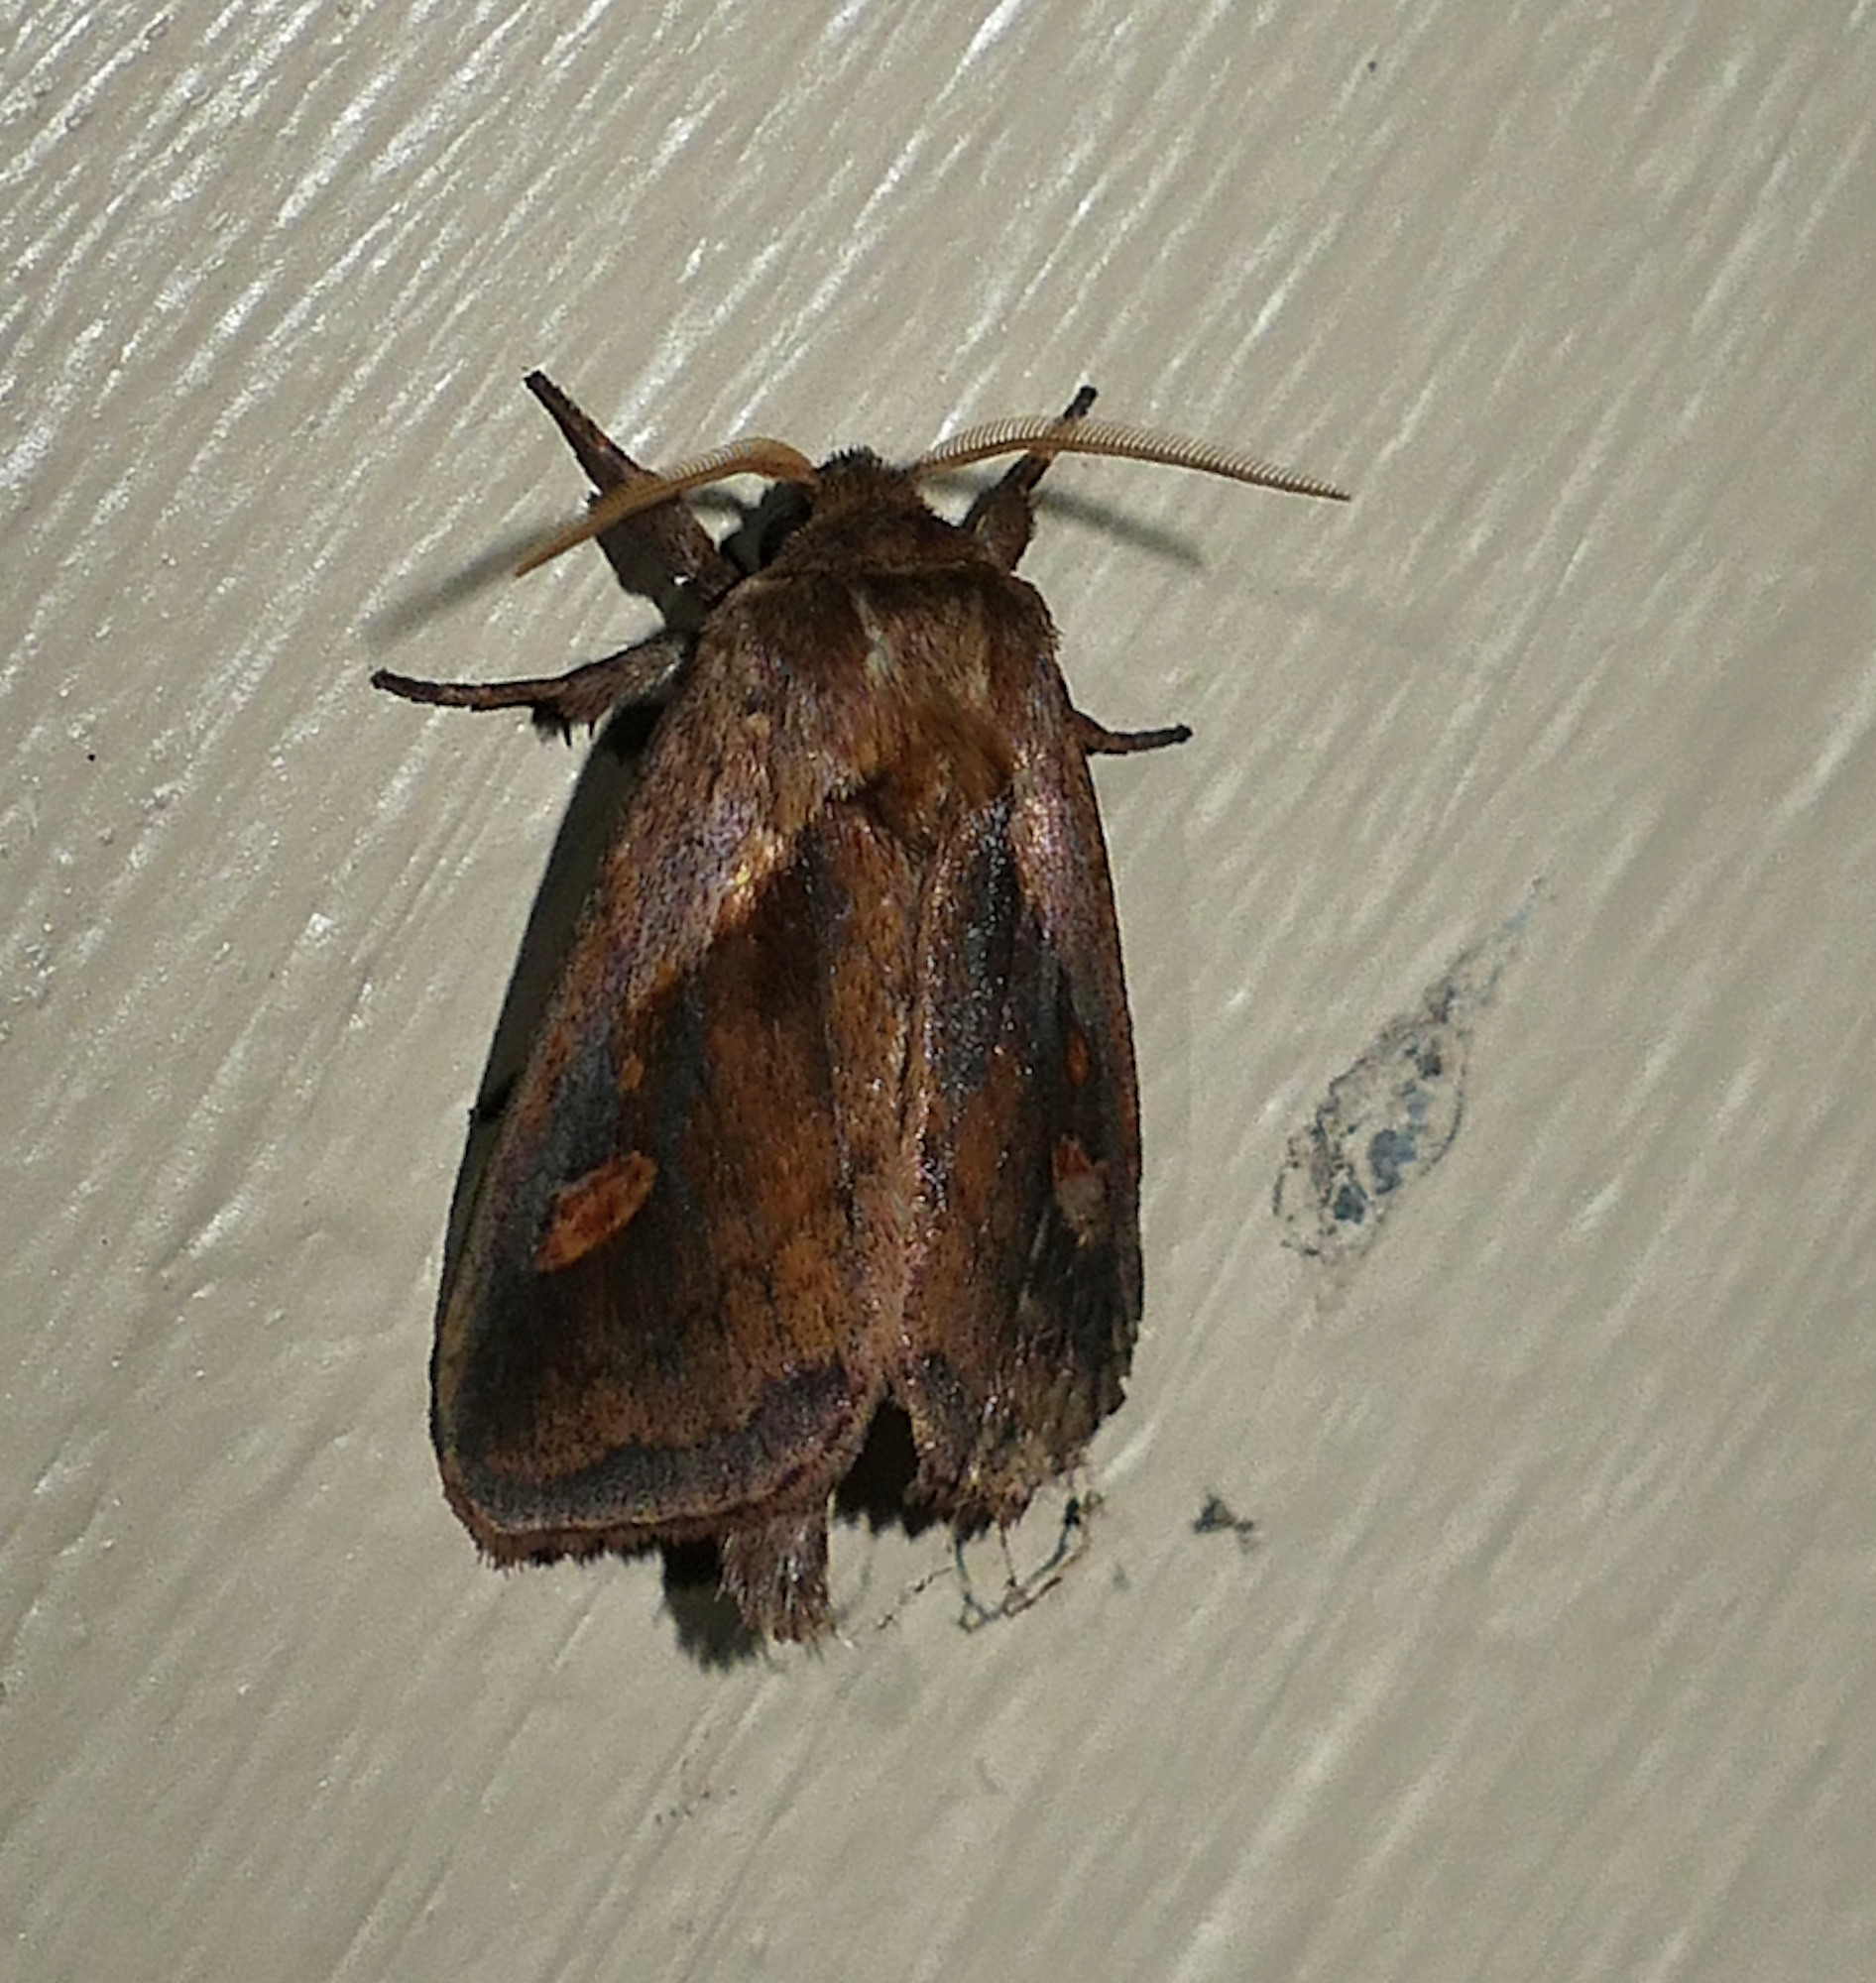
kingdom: Animalia
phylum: Arthropoda
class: Insecta
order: Lepidoptera
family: Noctuidae
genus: Bellura
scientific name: Bellura obliqua
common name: Cattail borer moth
